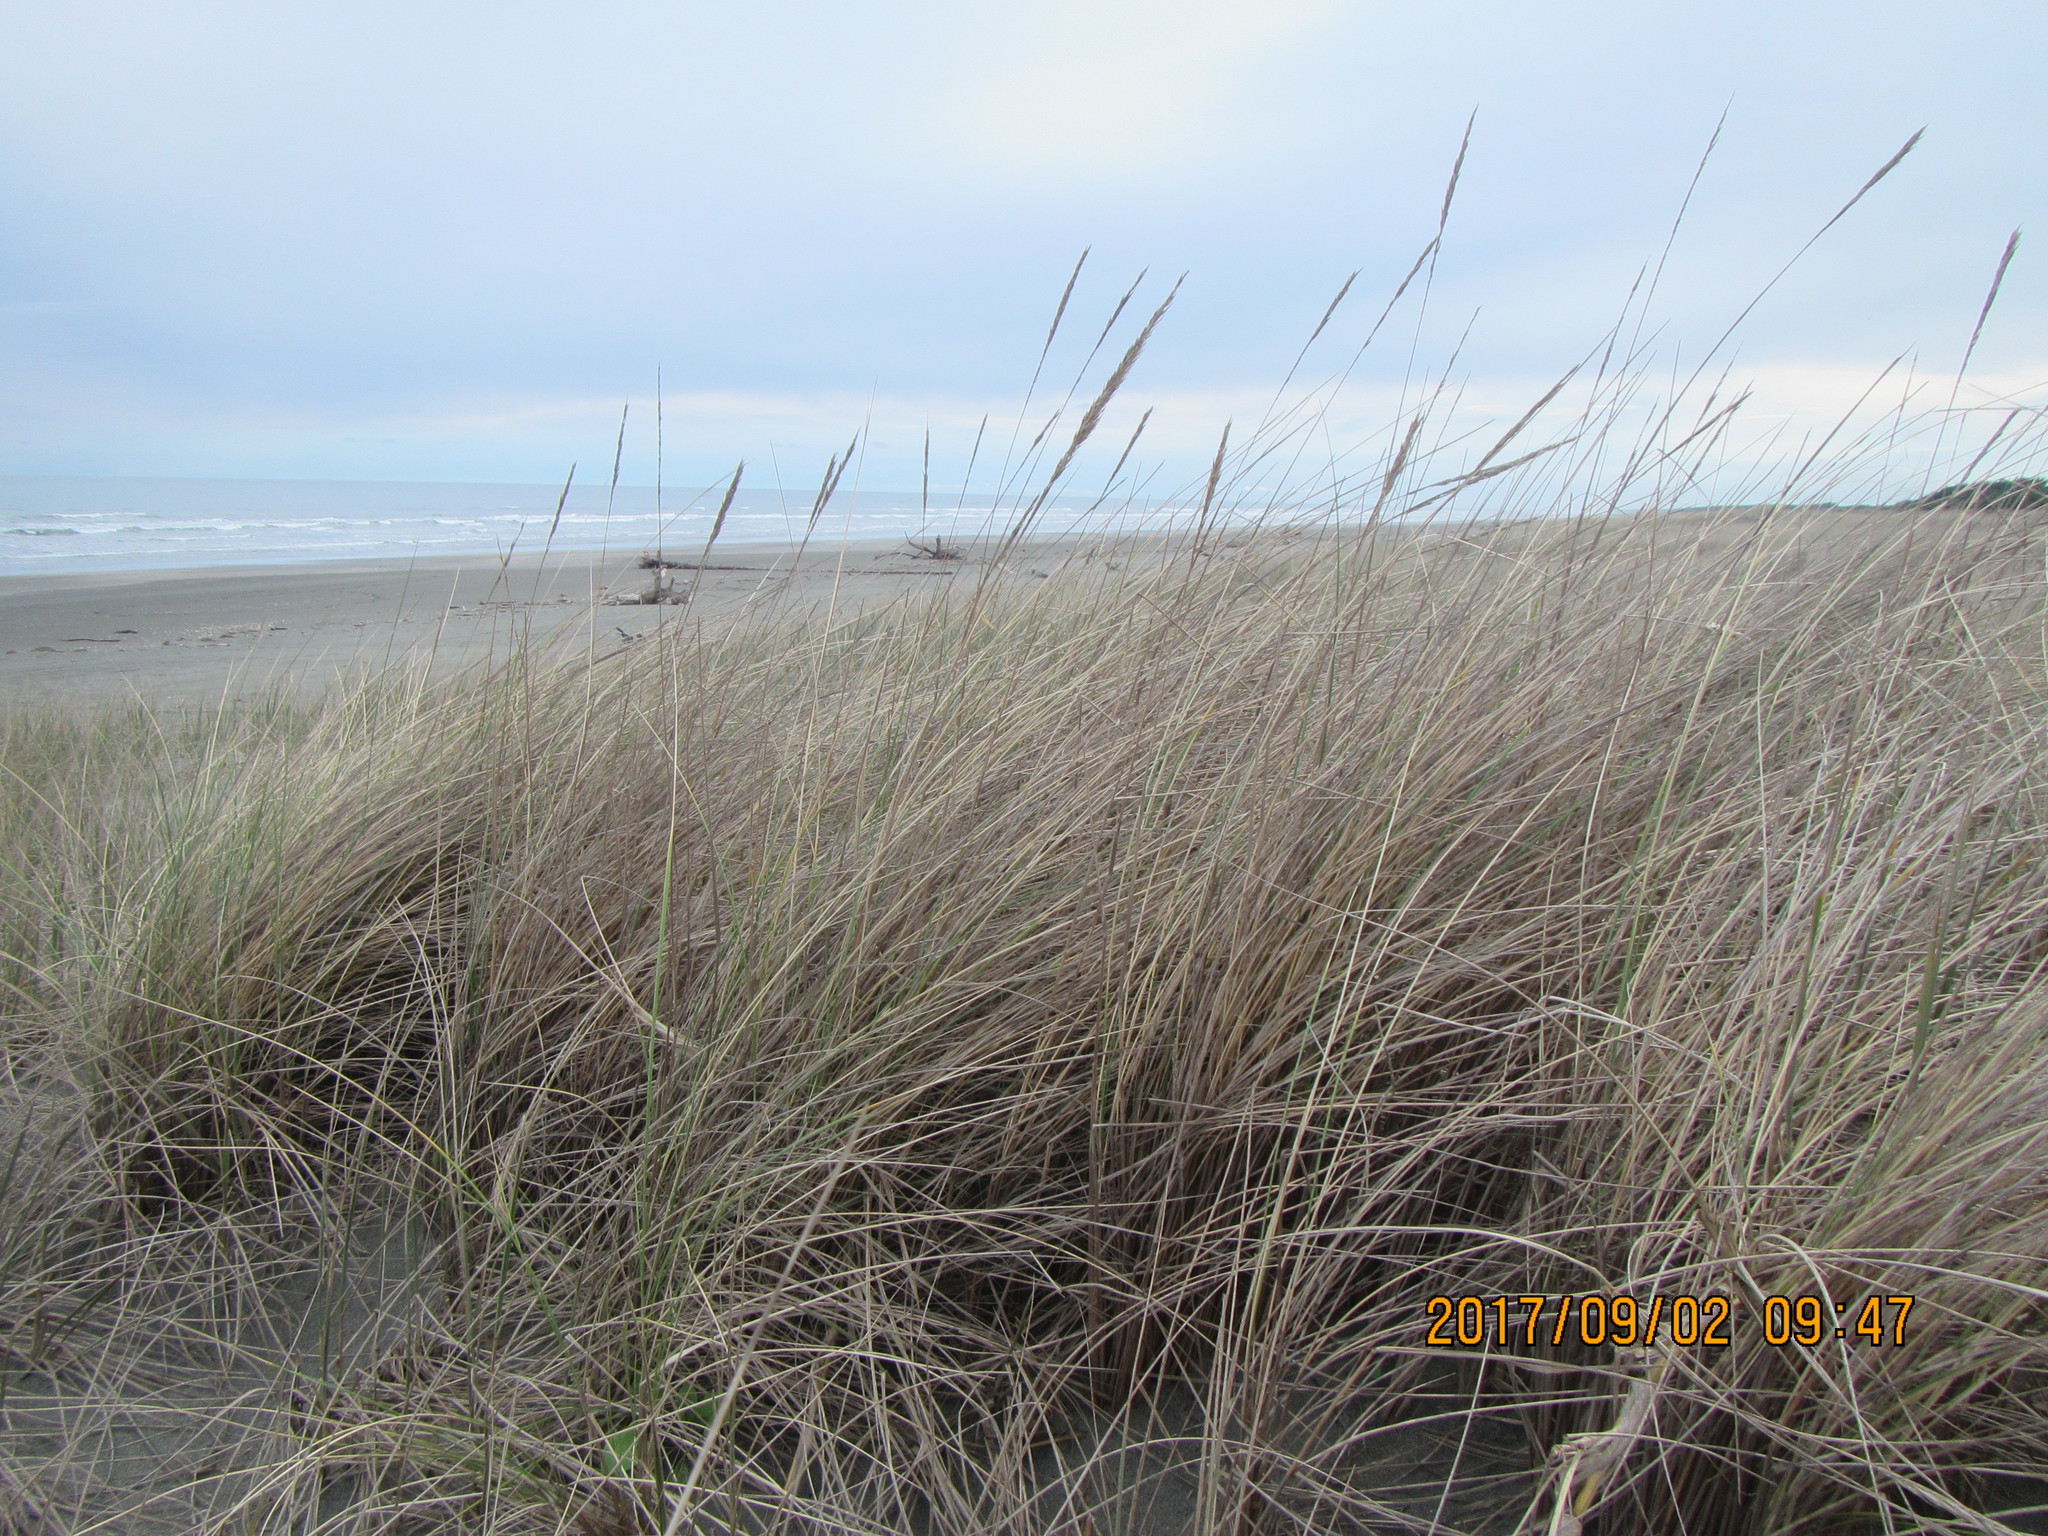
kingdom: Plantae
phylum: Tracheophyta
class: Liliopsida
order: Poales
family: Poaceae
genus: Calamagrostis
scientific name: Calamagrostis arenaria
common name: European beachgrass
